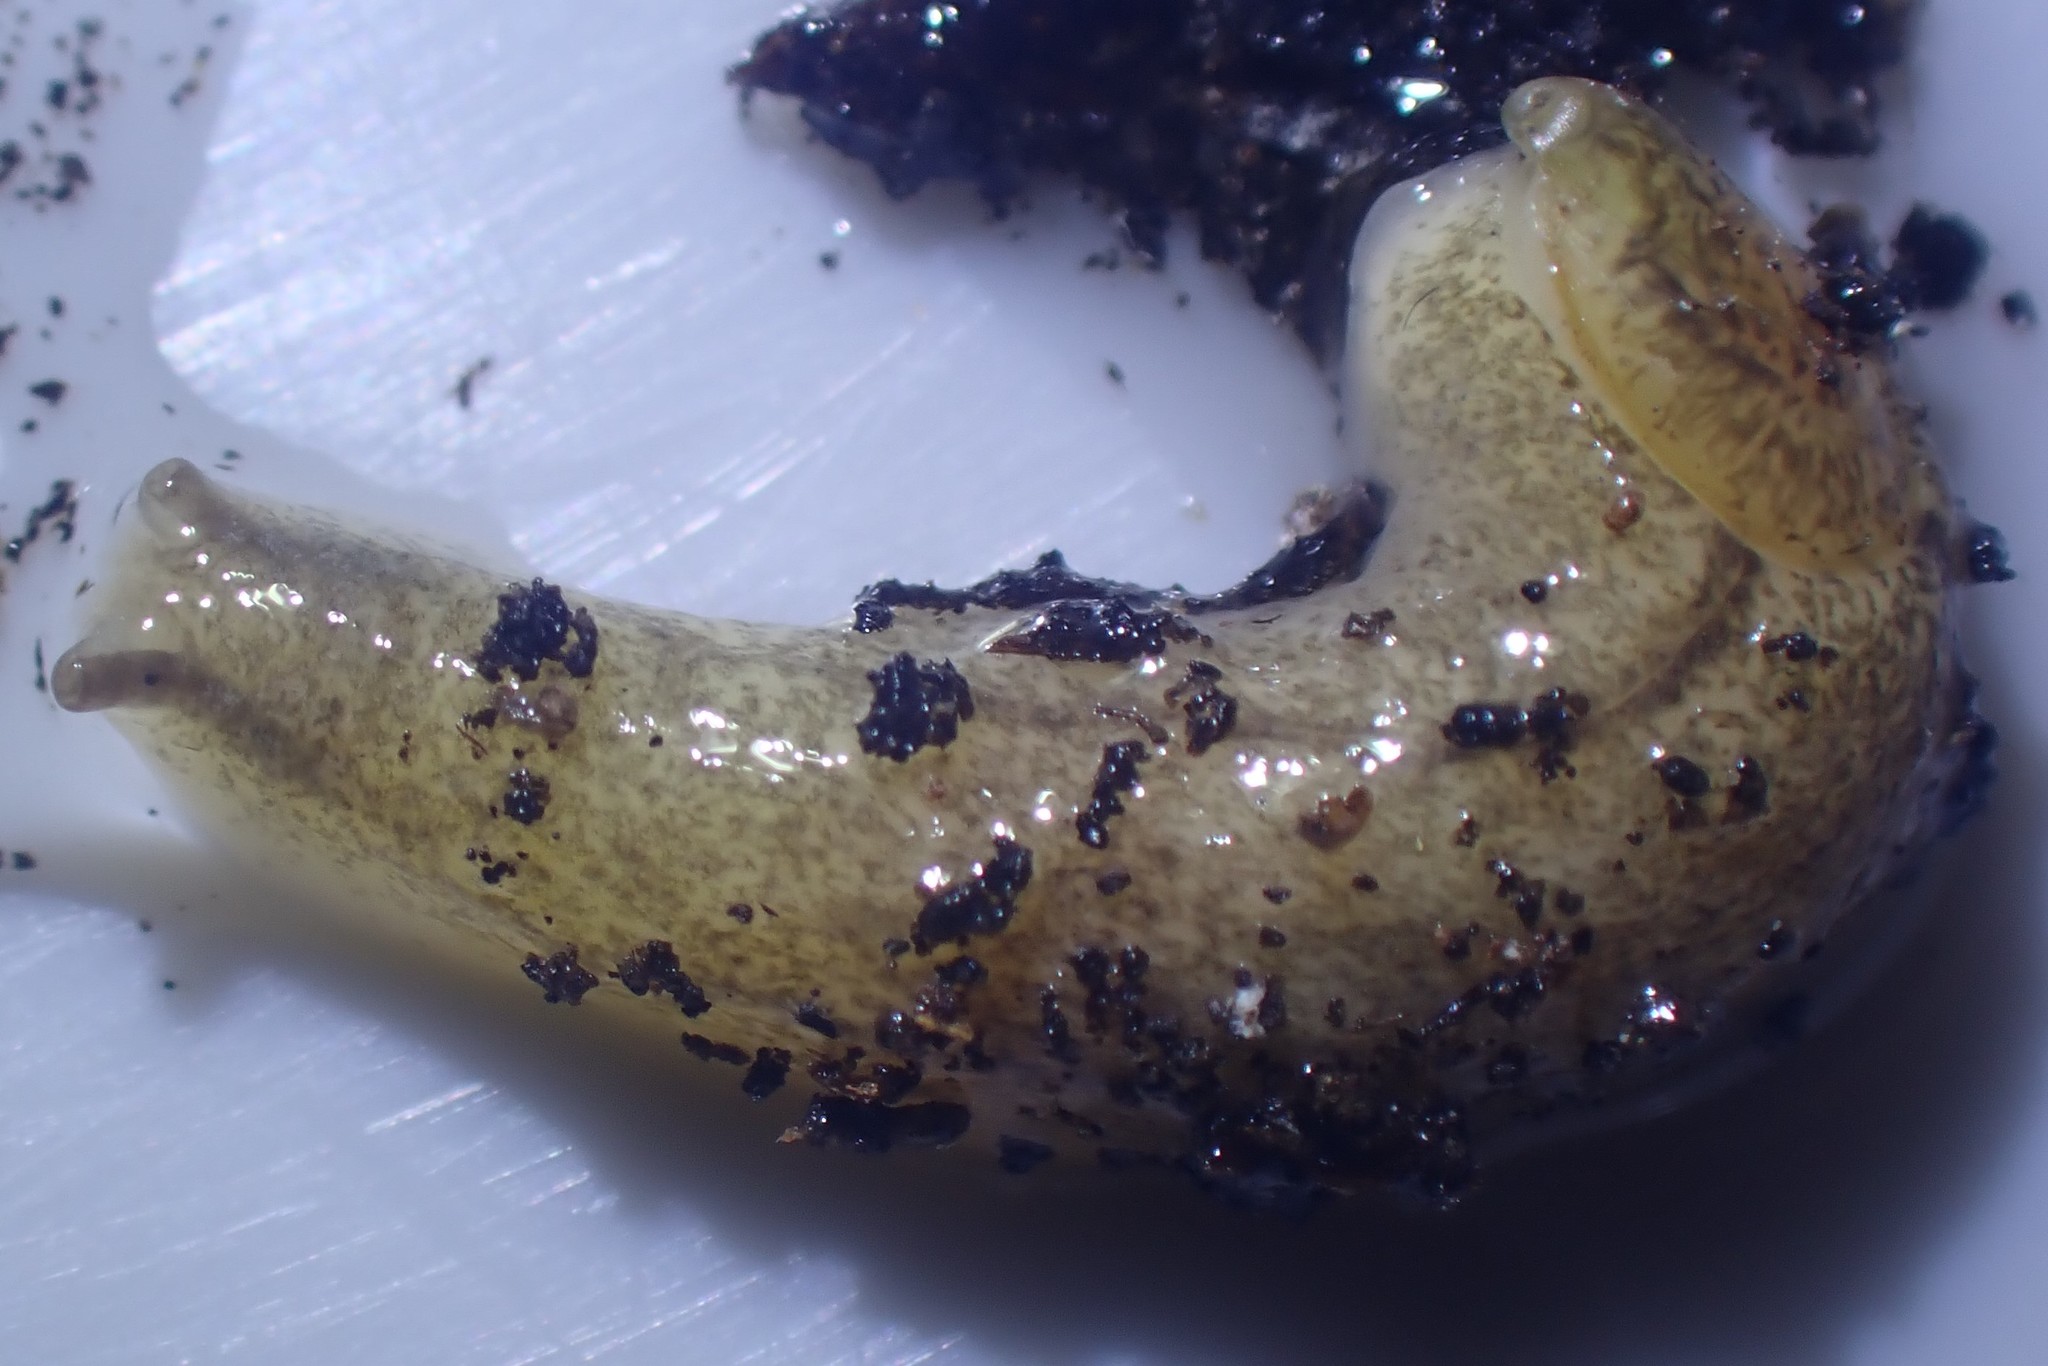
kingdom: Animalia
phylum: Mollusca
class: Gastropoda
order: Stylommatophora
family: Testacellidae
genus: Testacella
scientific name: Testacella maugei
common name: Mauge's slug
